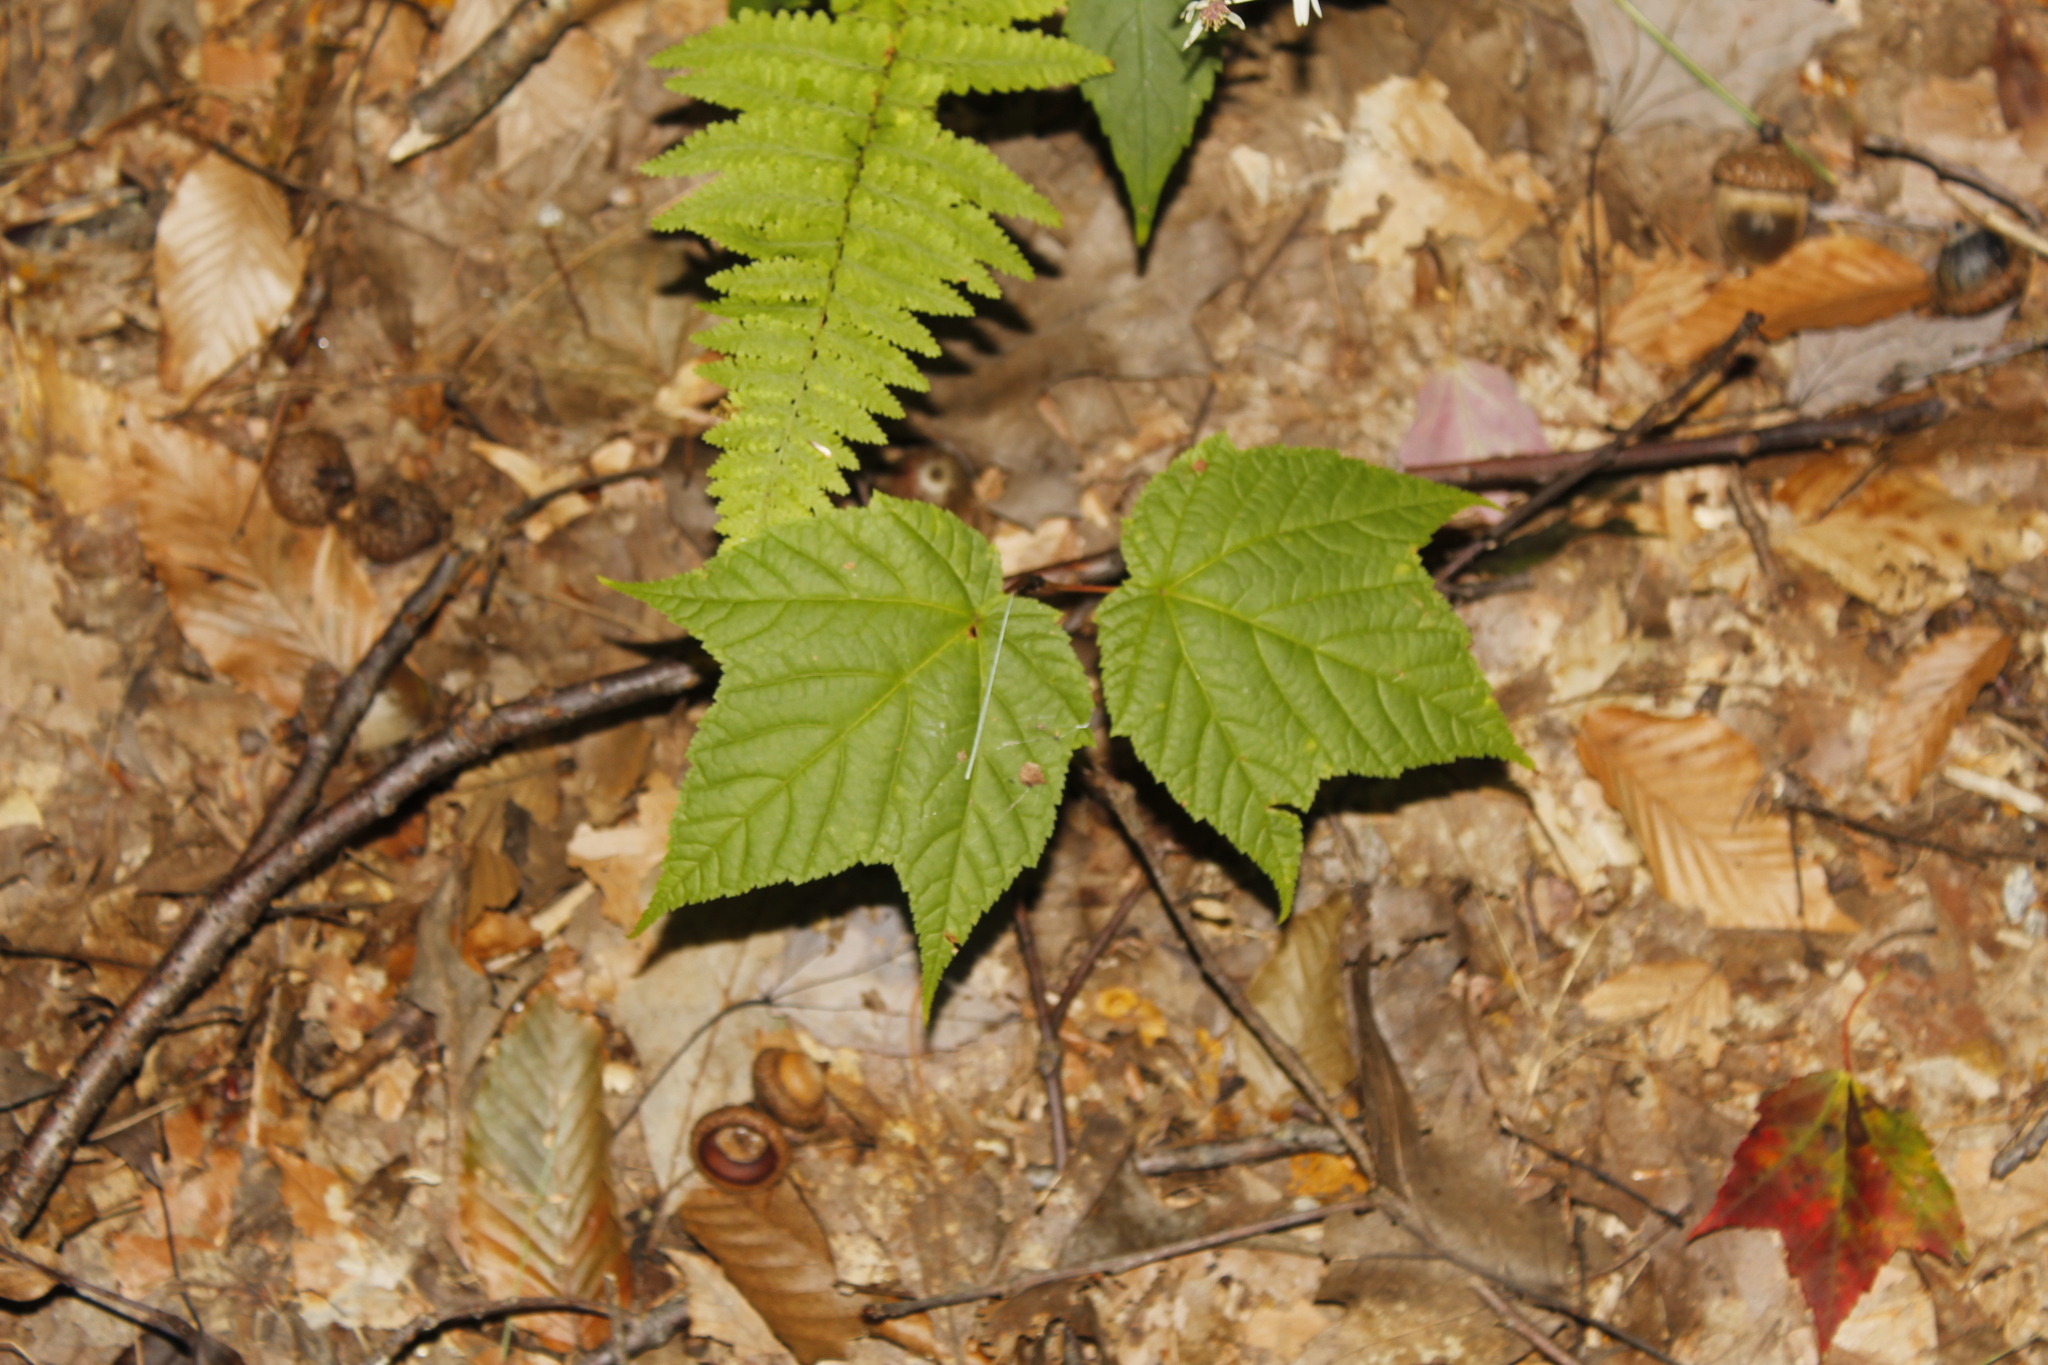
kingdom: Plantae
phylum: Tracheophyta
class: Magnoliopsida
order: Sapindales
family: Sapindaceae
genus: Acer
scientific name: Acer pensylvanicum
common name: Moosewood
